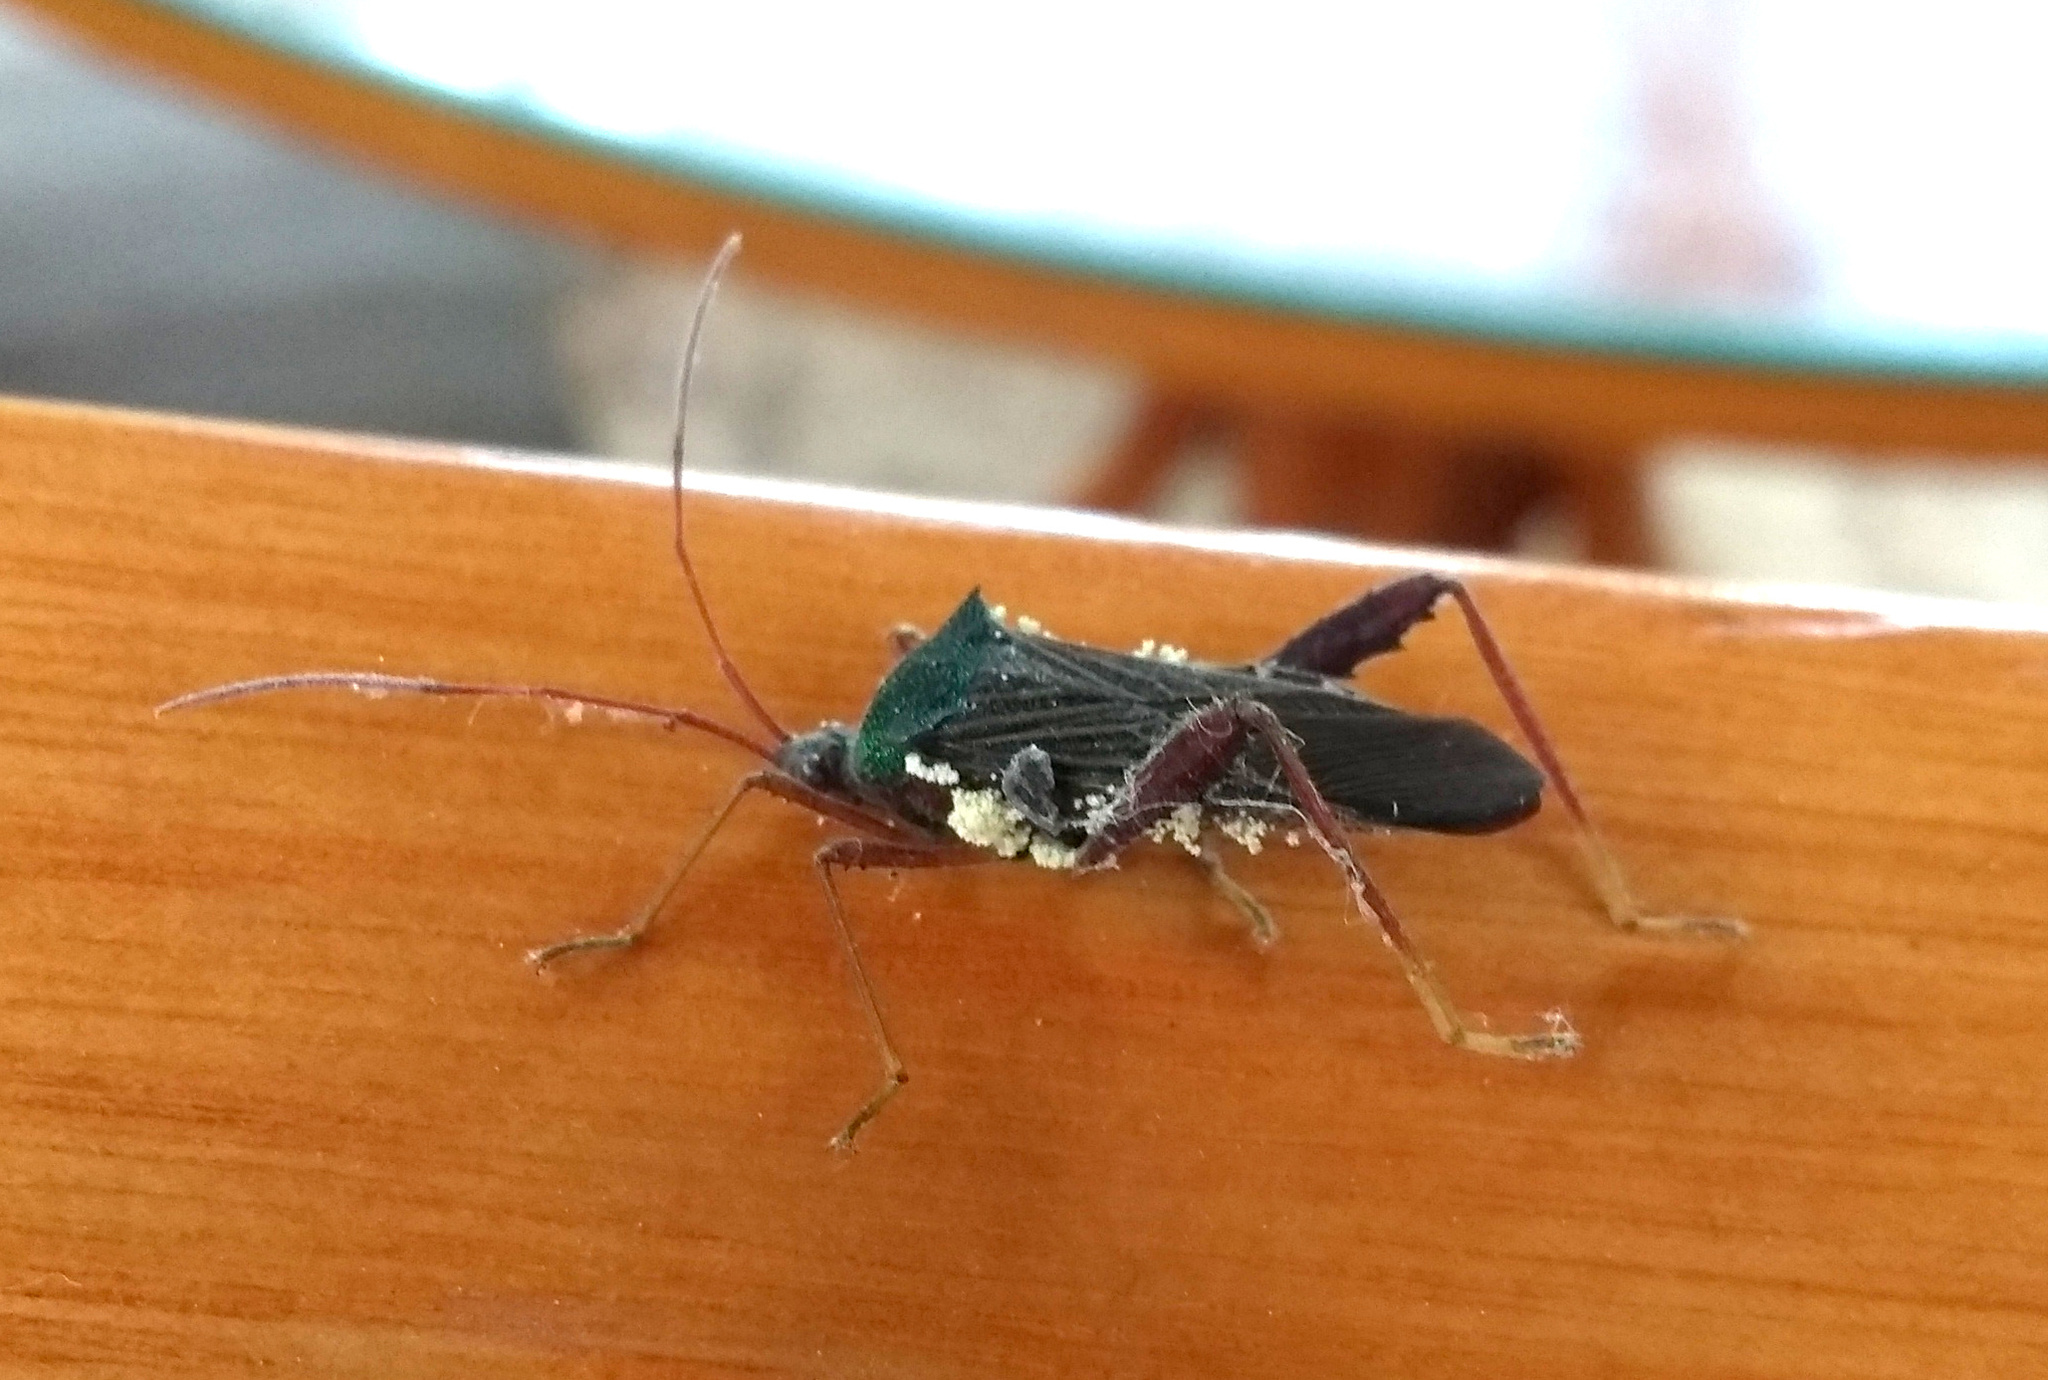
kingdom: Animalia
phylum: Arthropoda
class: Insecta
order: Hemiptera
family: Coreidae
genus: Anomalopetalops
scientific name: Anomalopetalops brulei
